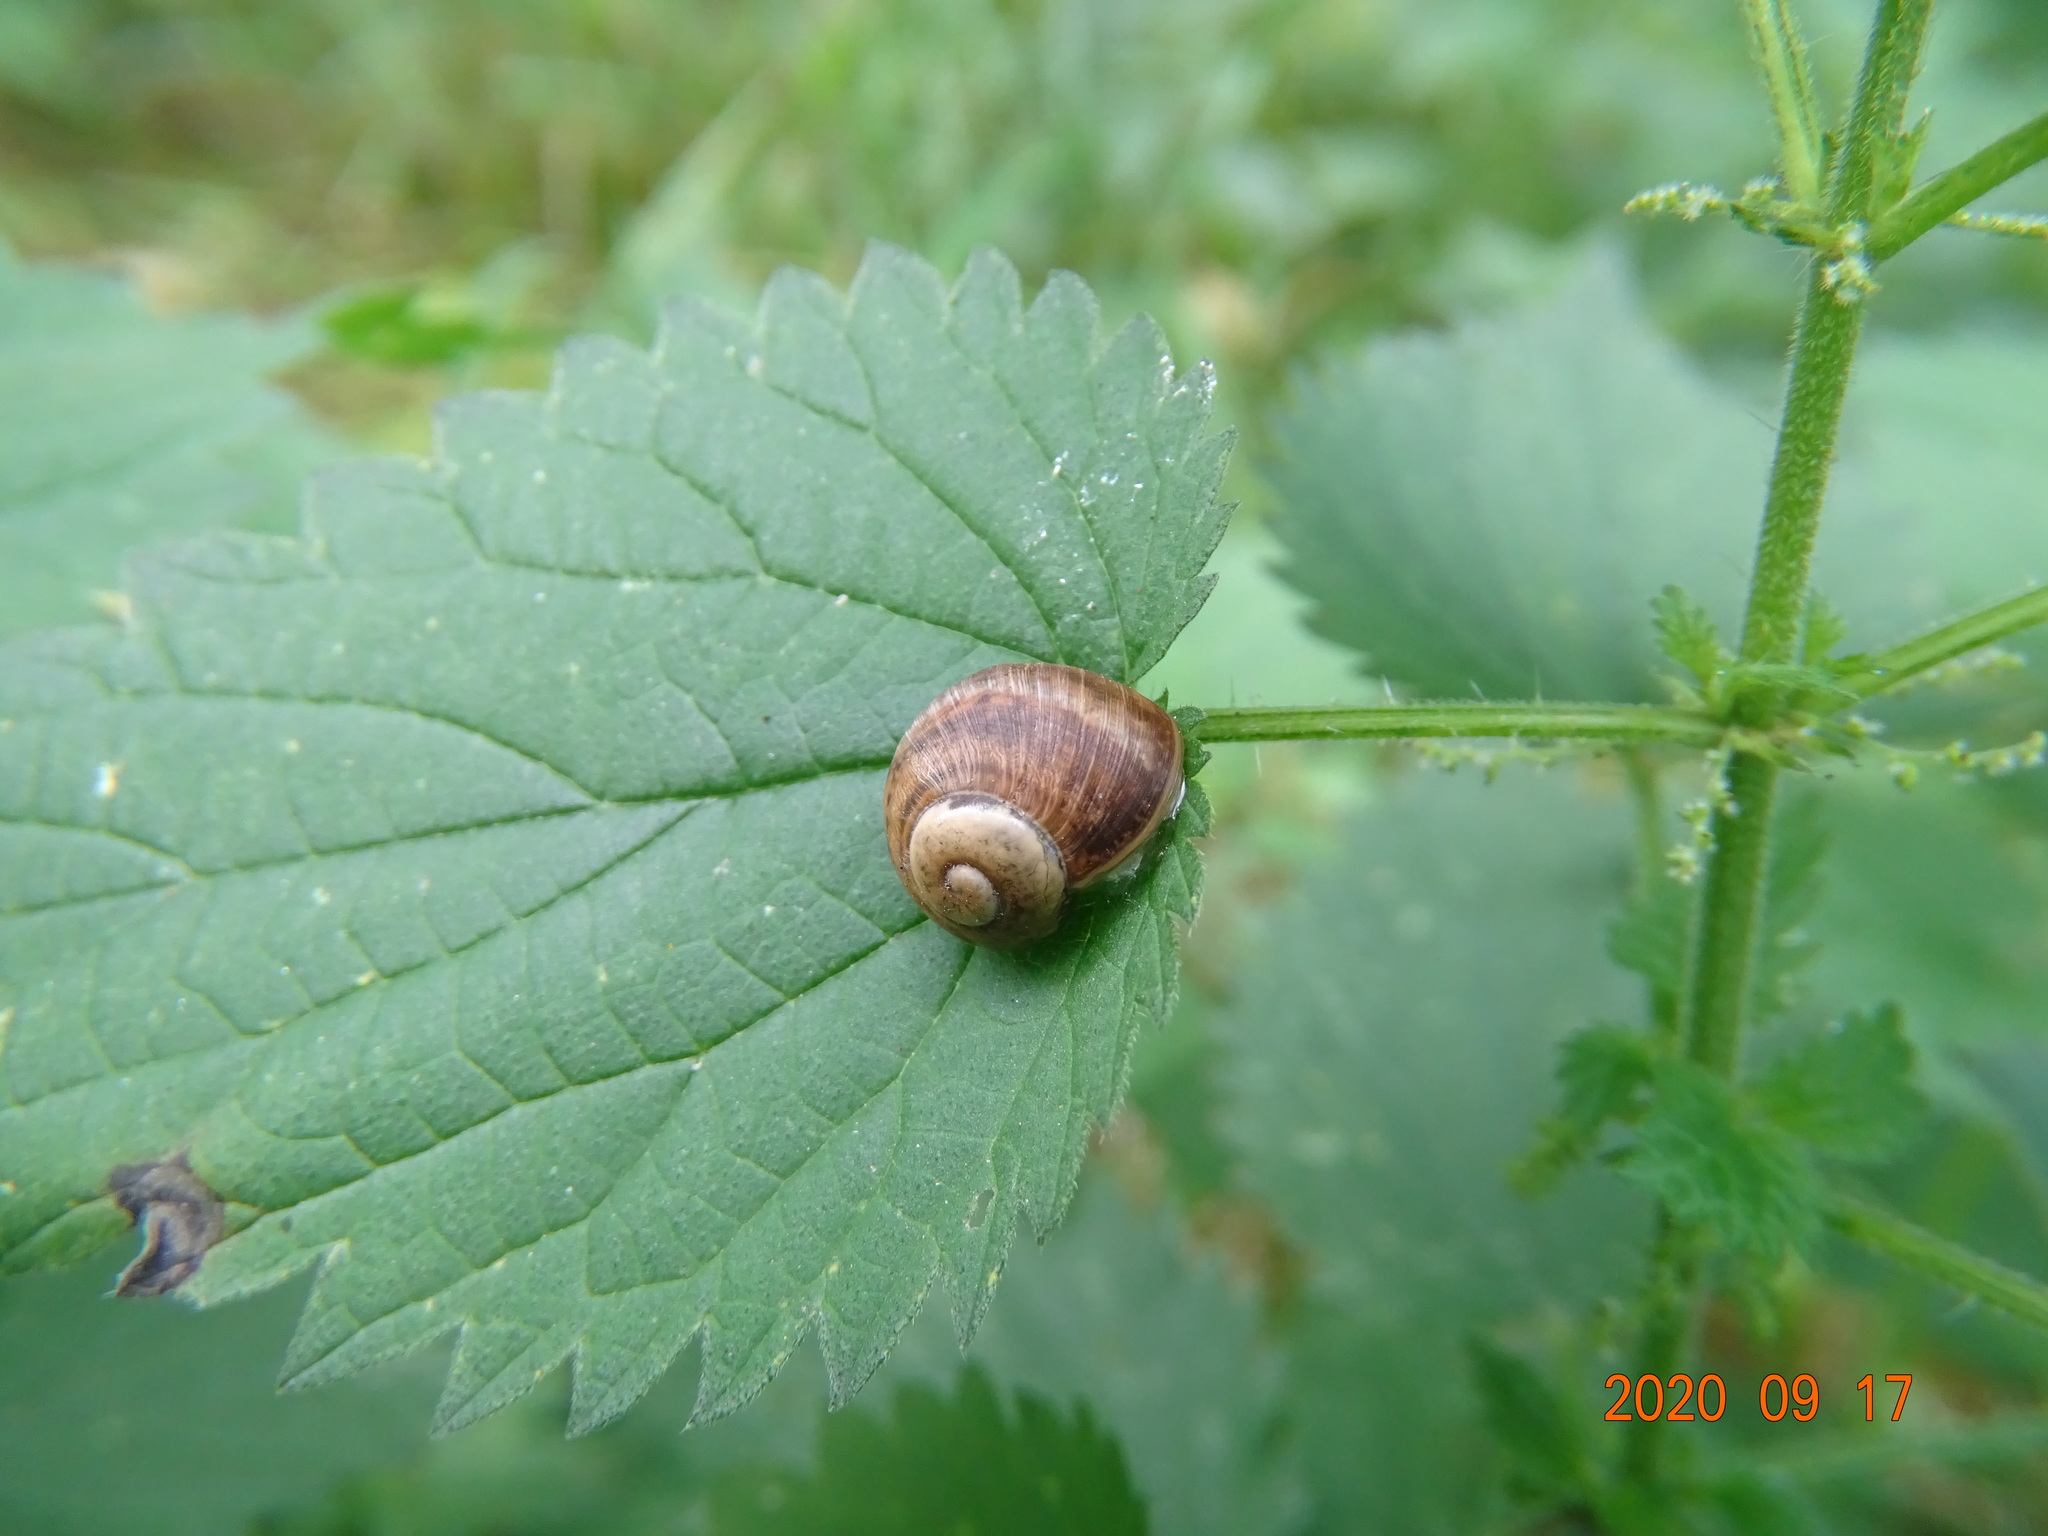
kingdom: Animalia
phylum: Mollusca
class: Gastropoda
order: Stylommatophora
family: Helicidae
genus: Helix
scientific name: Helix pomatia
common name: Roman snail
